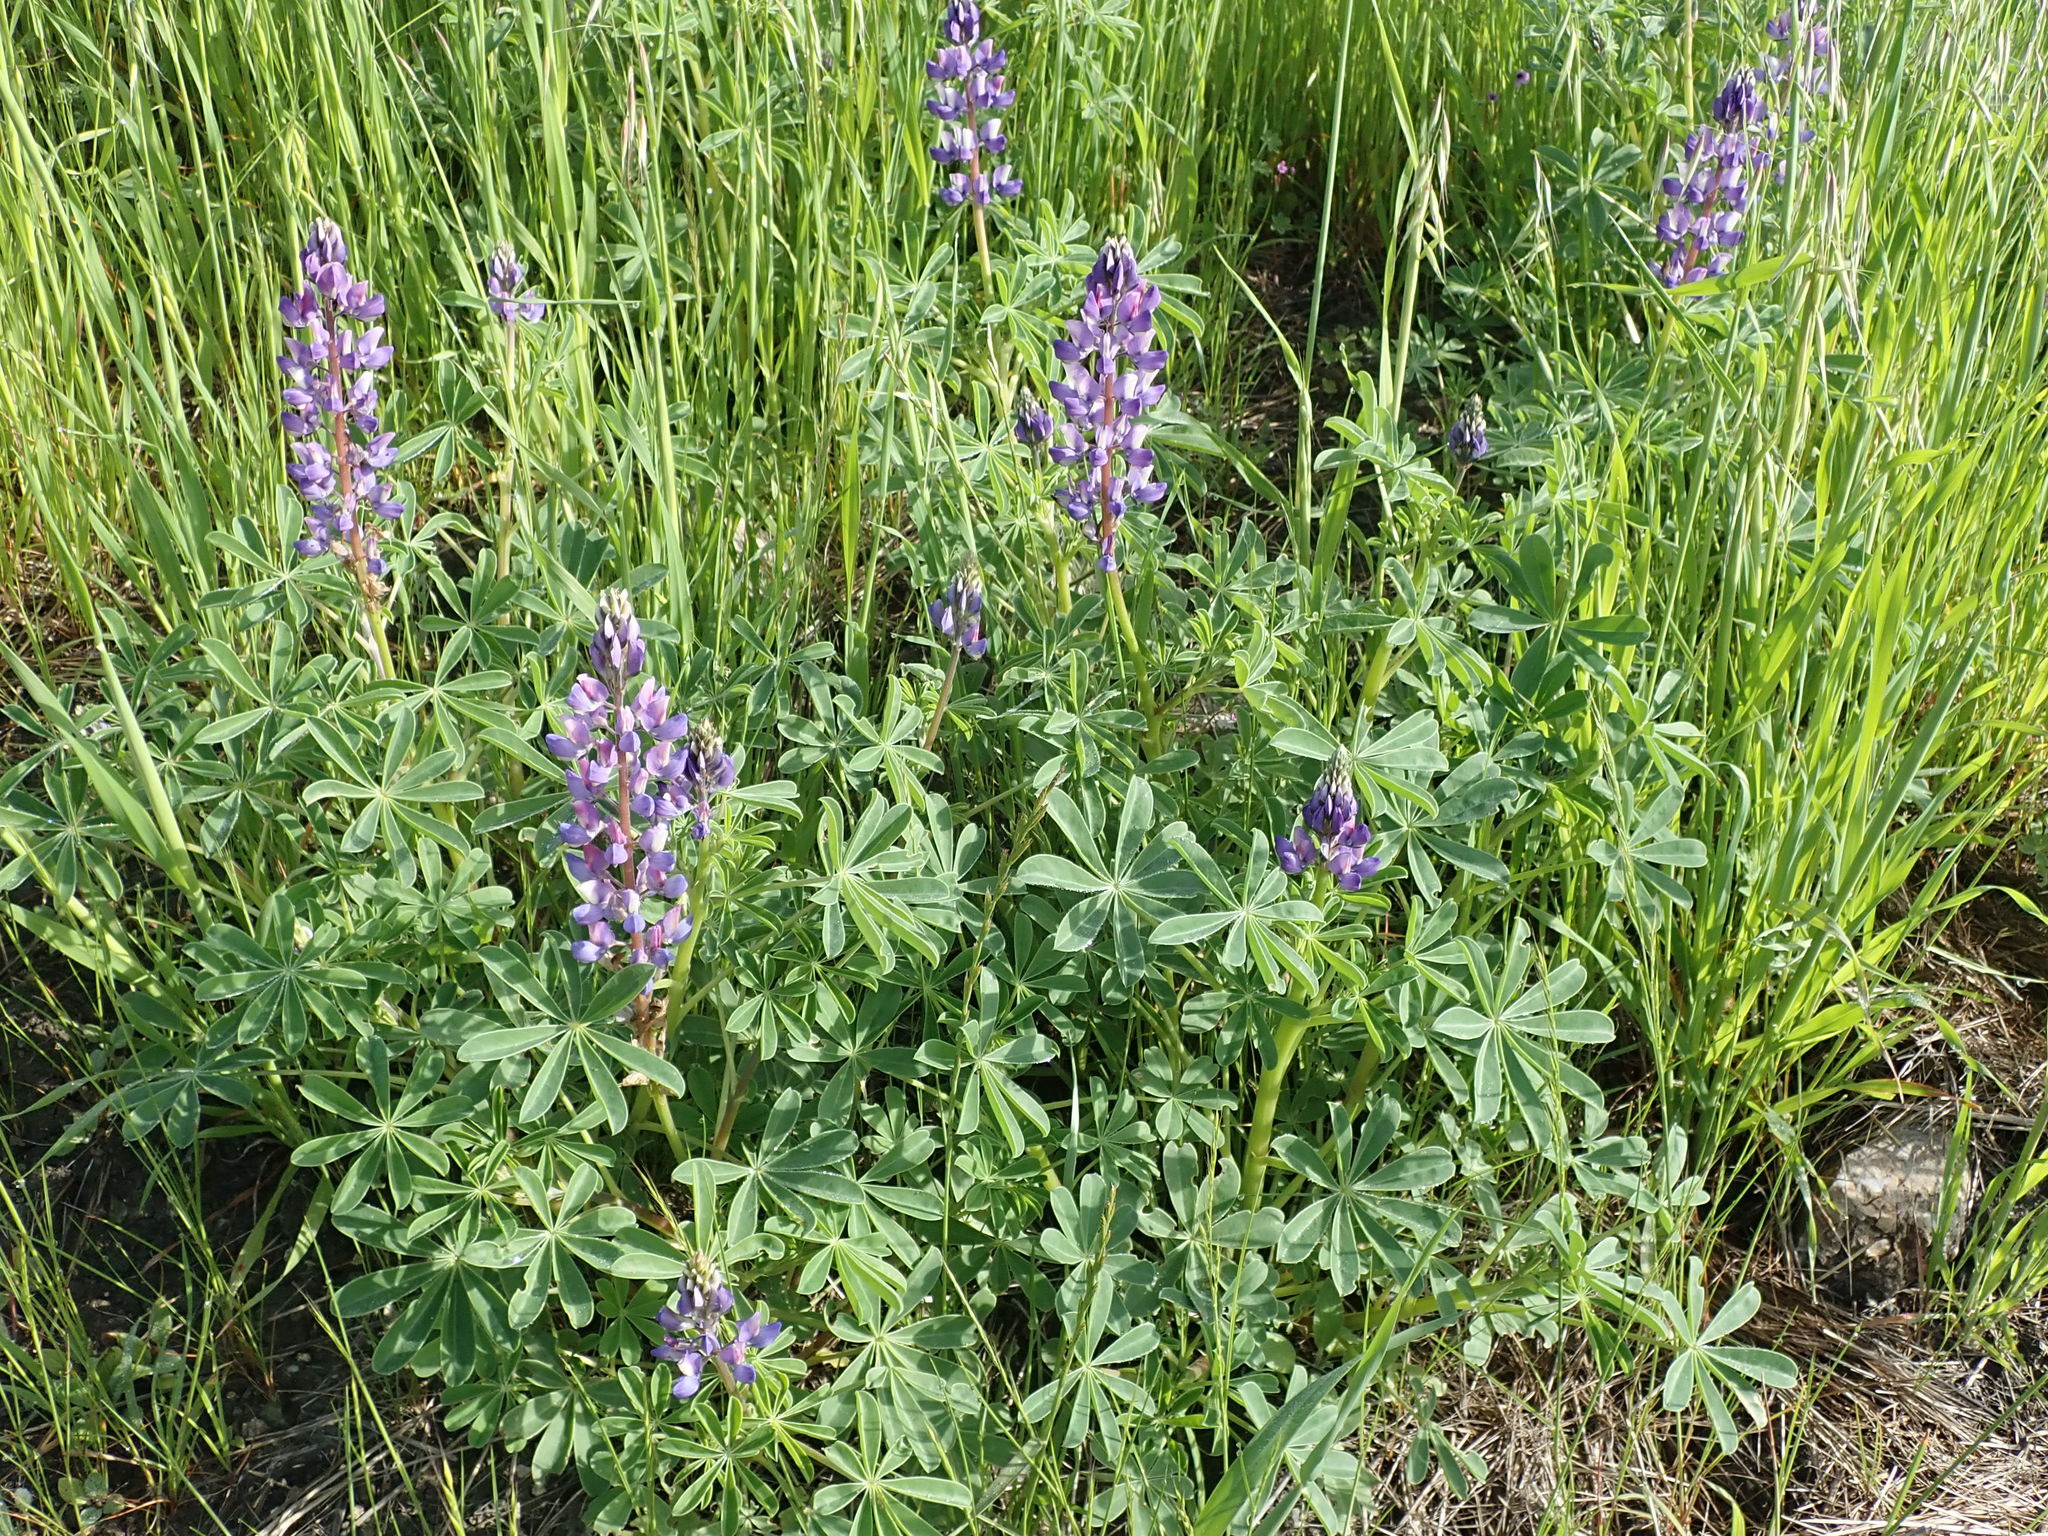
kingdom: Plantae
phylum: Tracheophyta
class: Magnoliopsida
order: Fabales
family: Fabaceae
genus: Lupinus
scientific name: Lupinus succulentus
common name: Arroyo lupine
